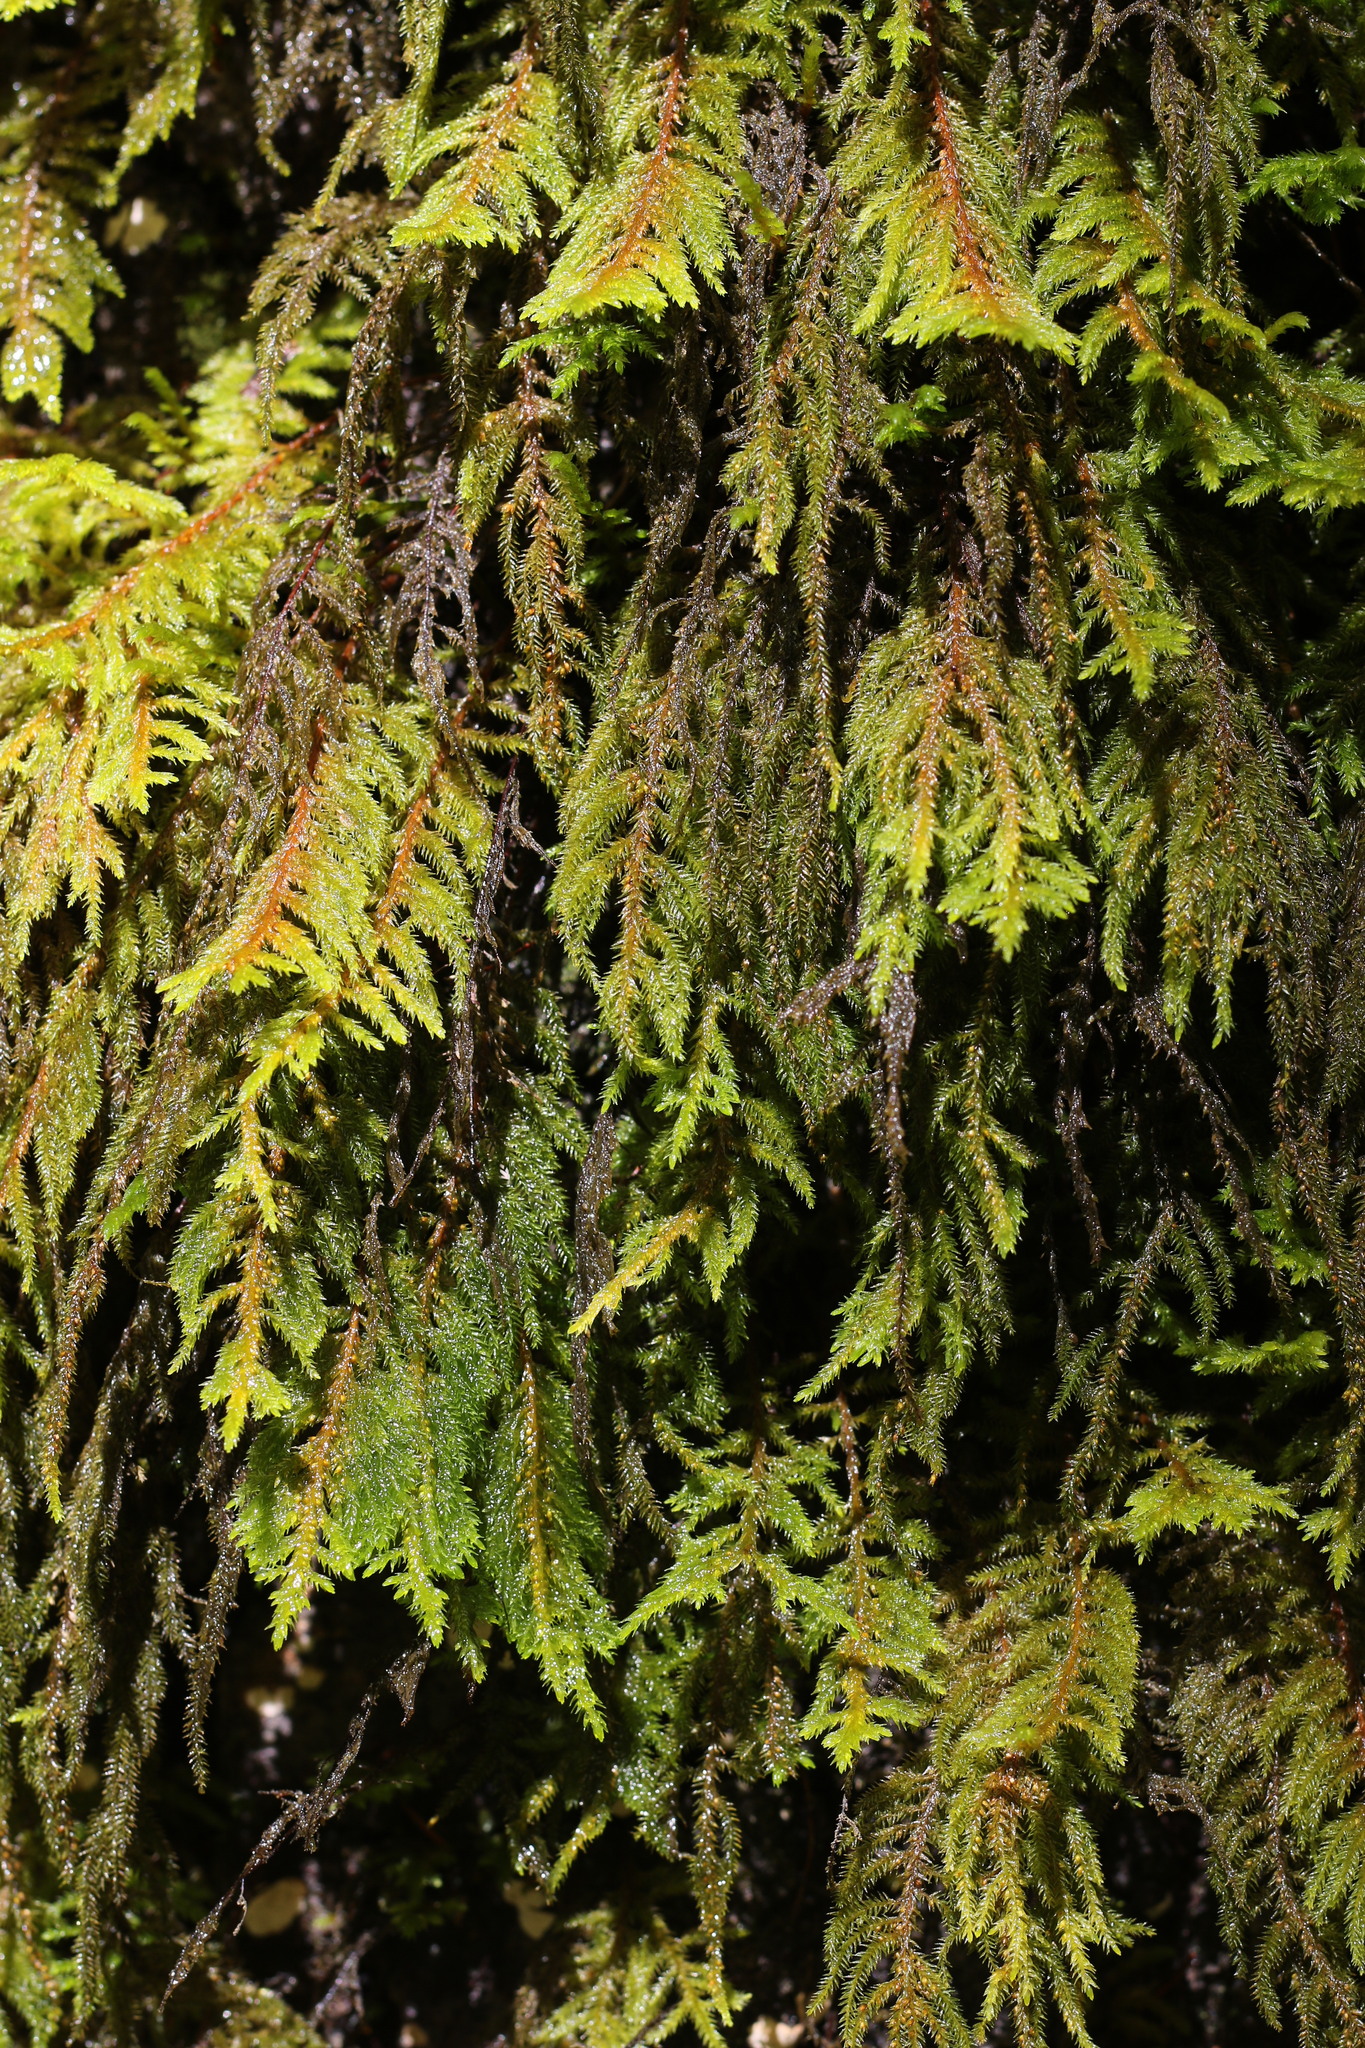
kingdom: Plantae
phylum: Bryophyta
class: Bryopsida
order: Hypnales
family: Cryphaeaceae
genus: Dendroalsia
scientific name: Dendroalsia abietina
